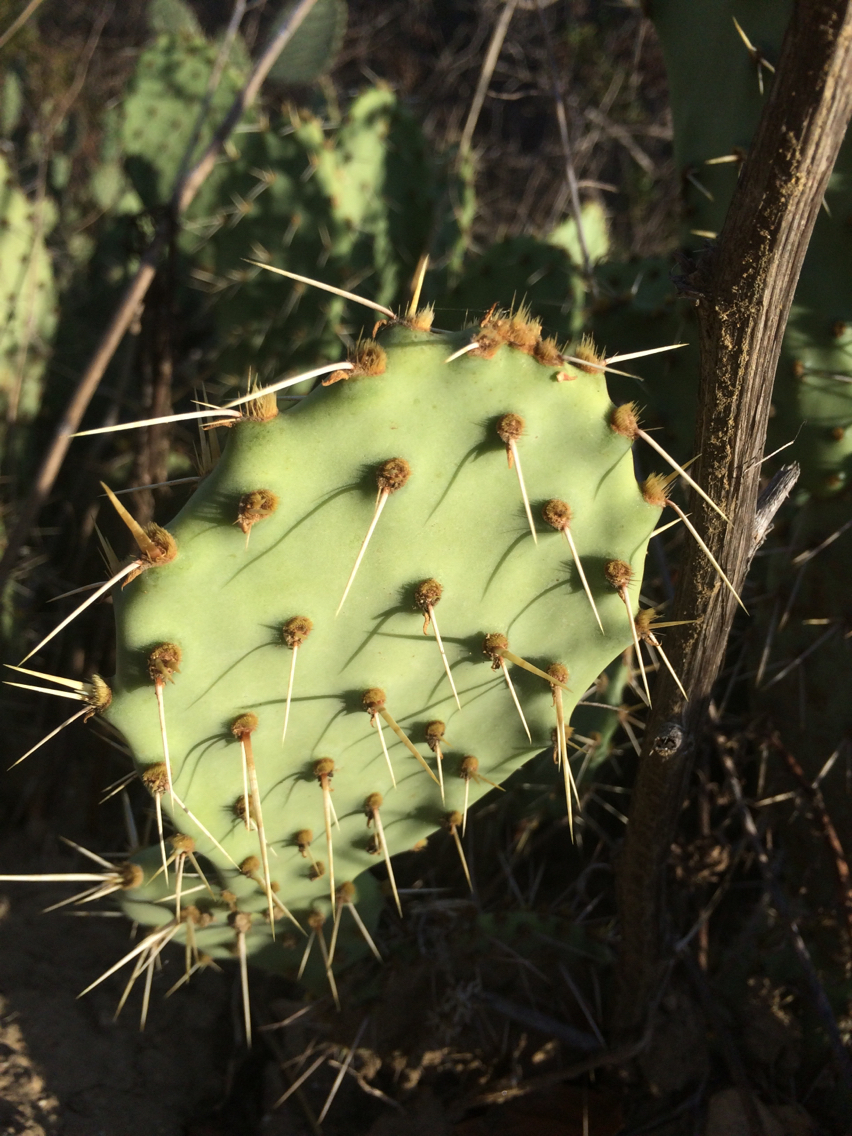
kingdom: Plantae
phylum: Tracheophyta
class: Magnoliopsida
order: Caryophyllales
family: Cactaceae
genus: Opuntia
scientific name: Opuntia littoralis
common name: Coastal prickly-pear
